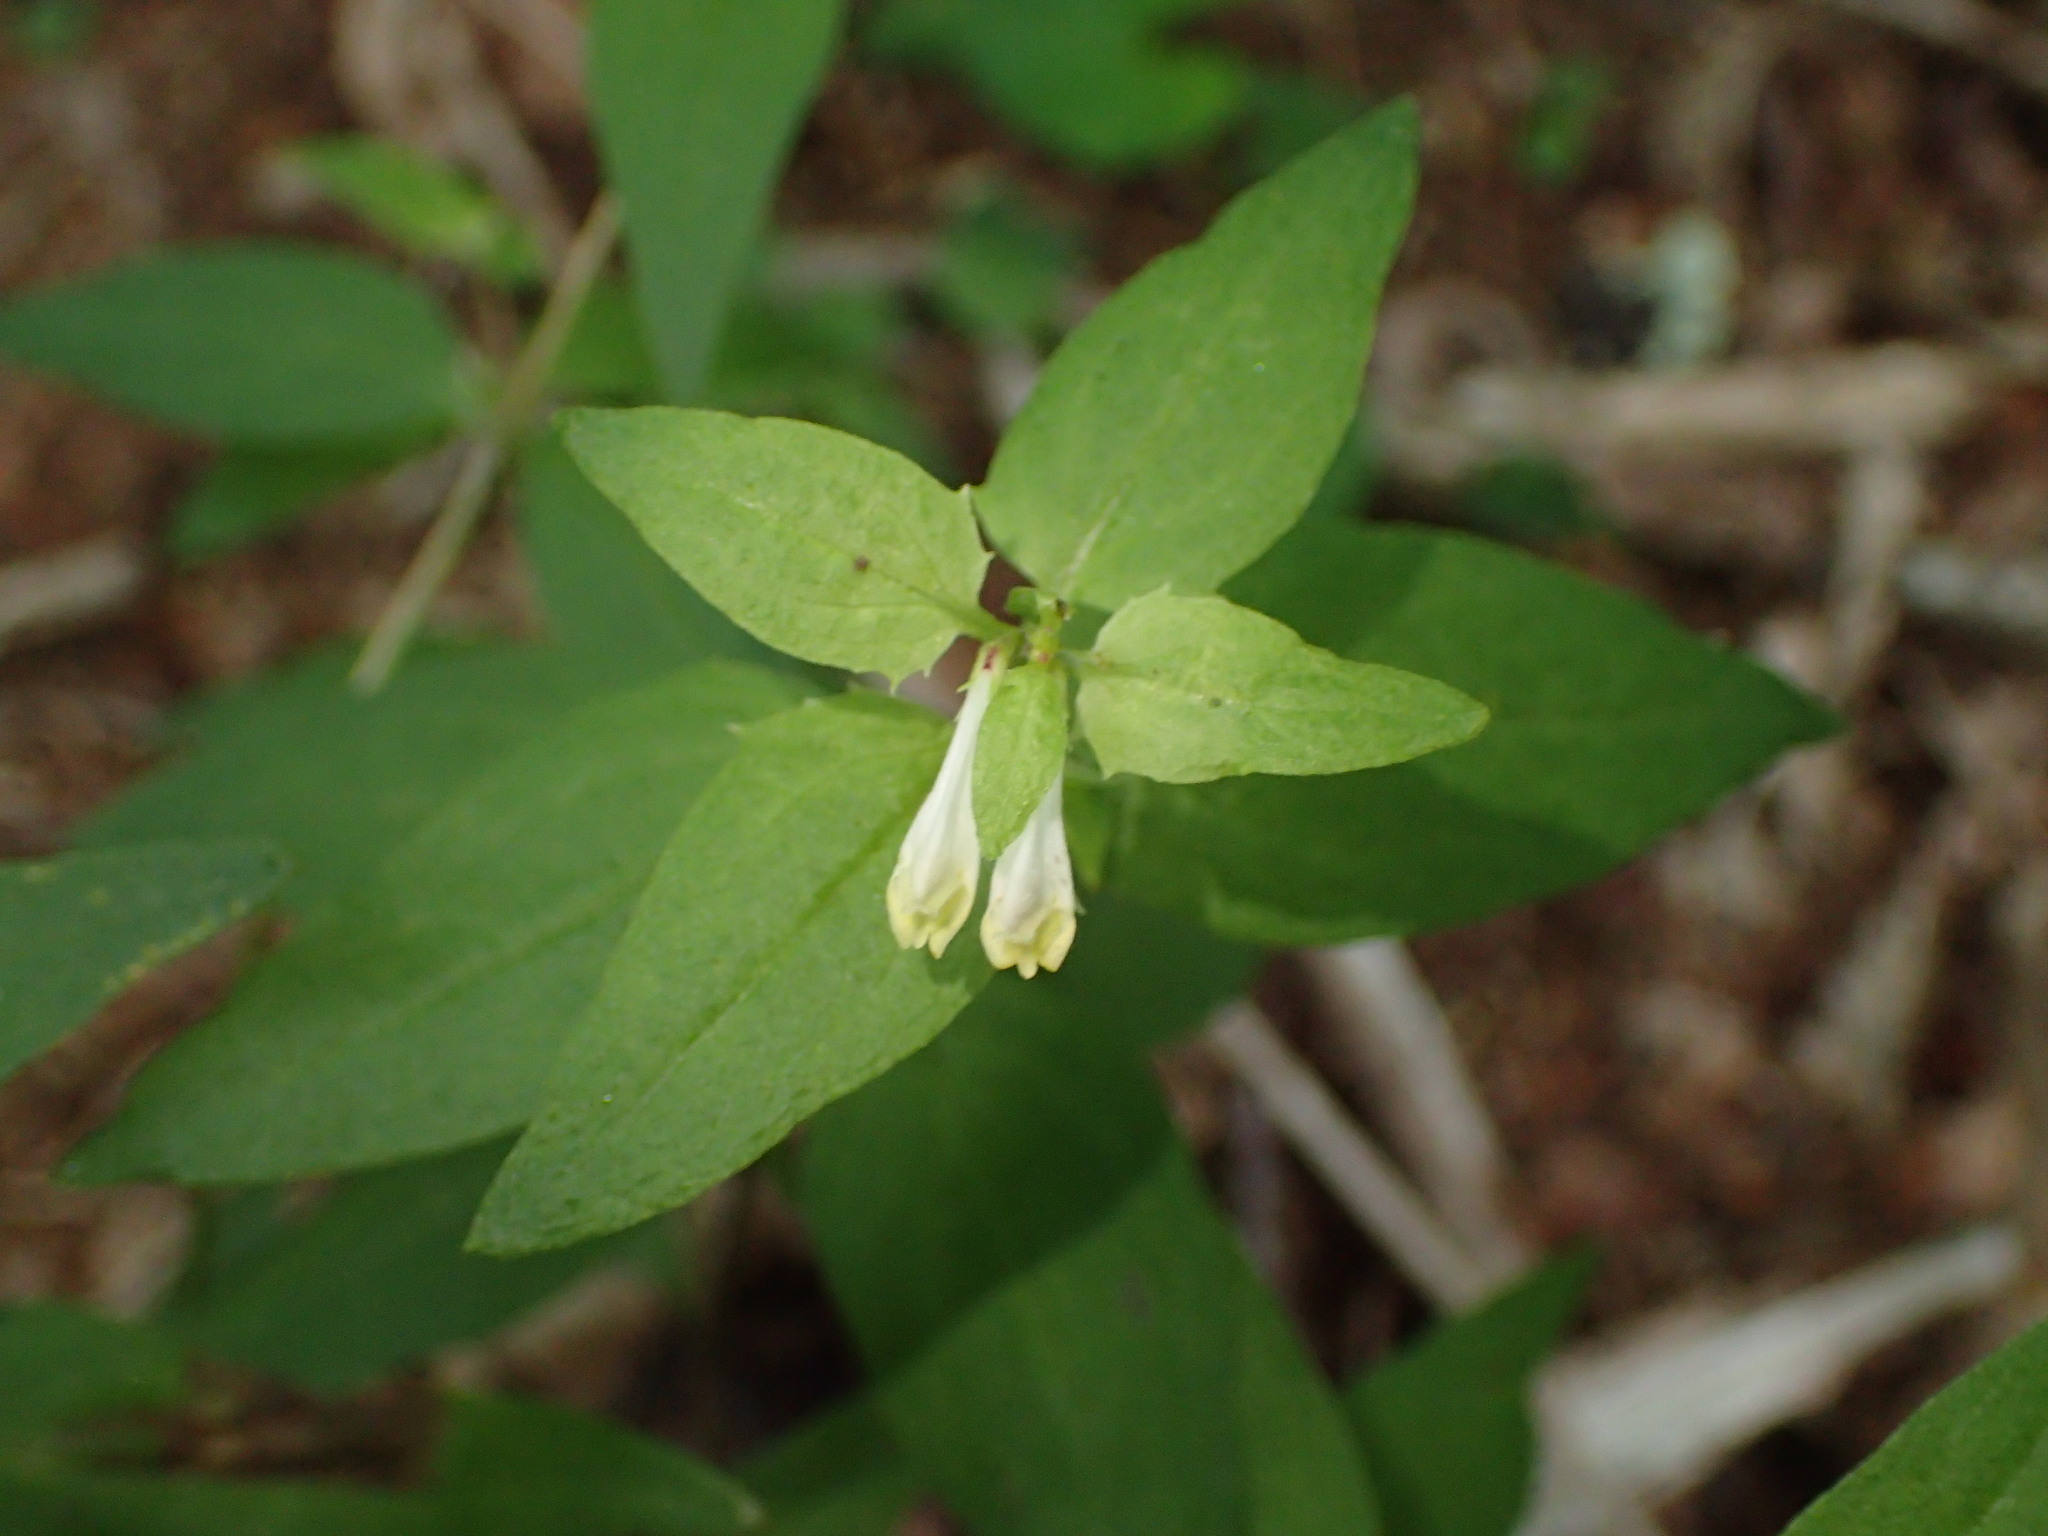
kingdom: Plantae
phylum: Tracheophyta
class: Magnoliopsida
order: Lamiales
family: Orobanchaceae
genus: Melampyrum
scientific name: Melampyrum lineare
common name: American cow-wheat
